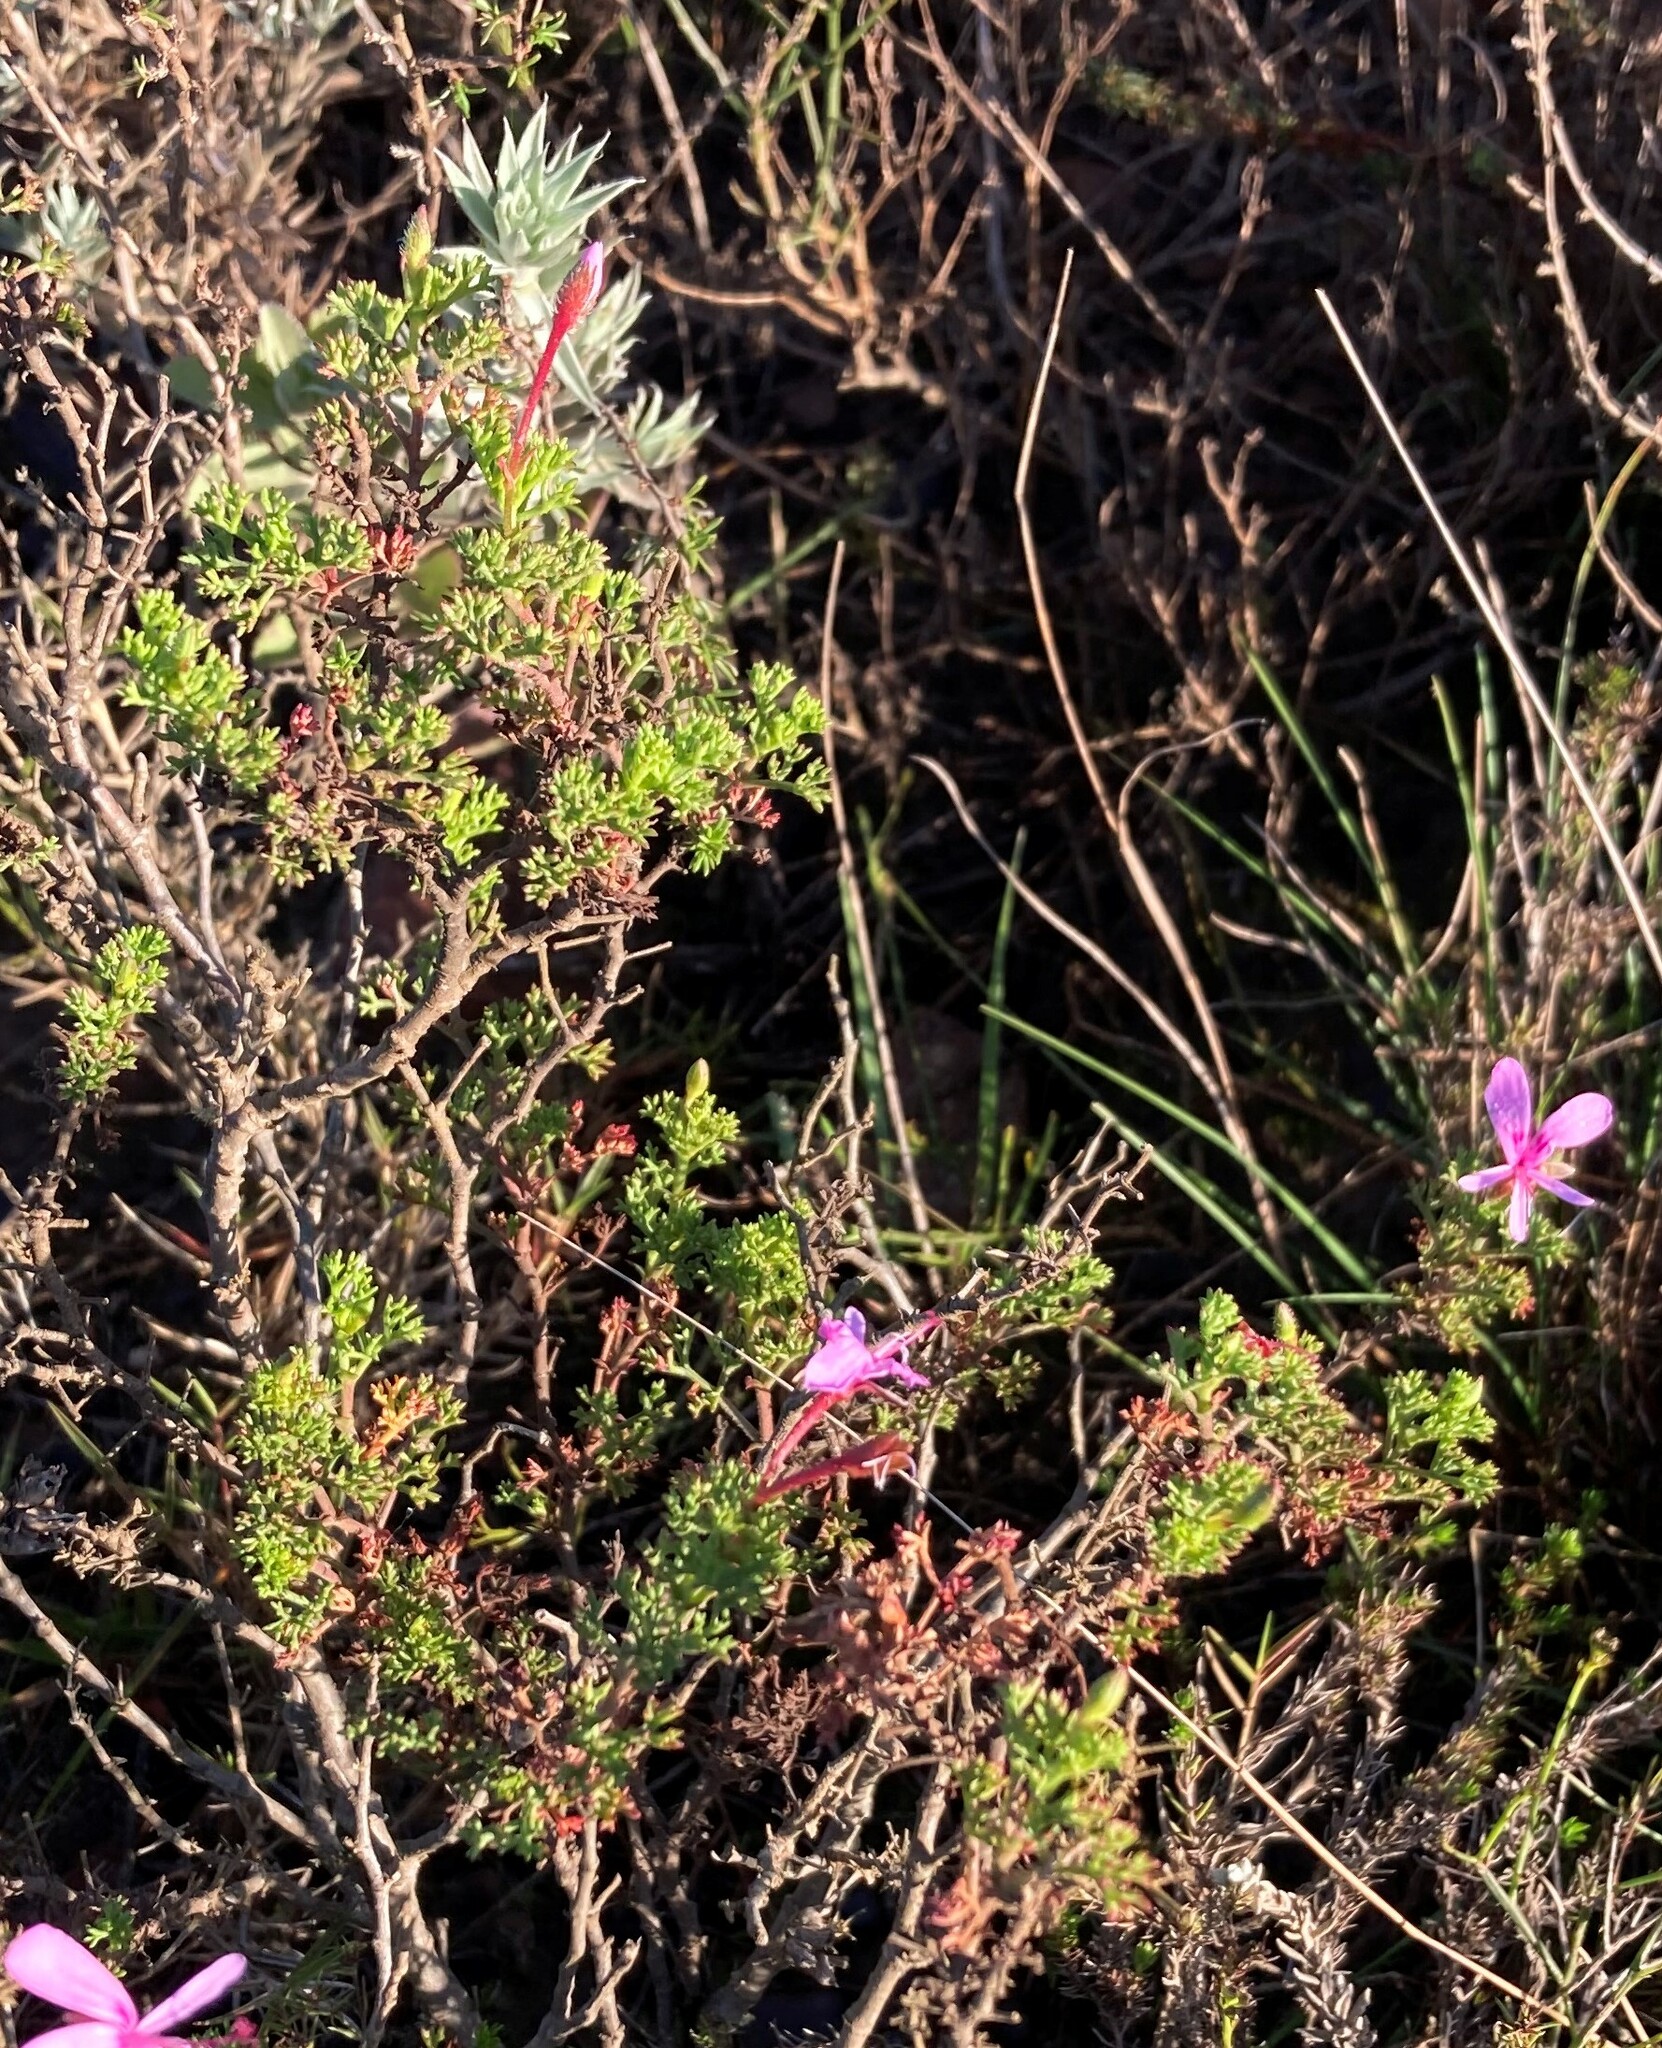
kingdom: Plantae
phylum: Tracheophyta
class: Magnoliopsida
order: Geraniales
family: Geraniaceae
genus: Pelargonium
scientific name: Pelargonium abrotanifolium
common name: Southernwood geranium
